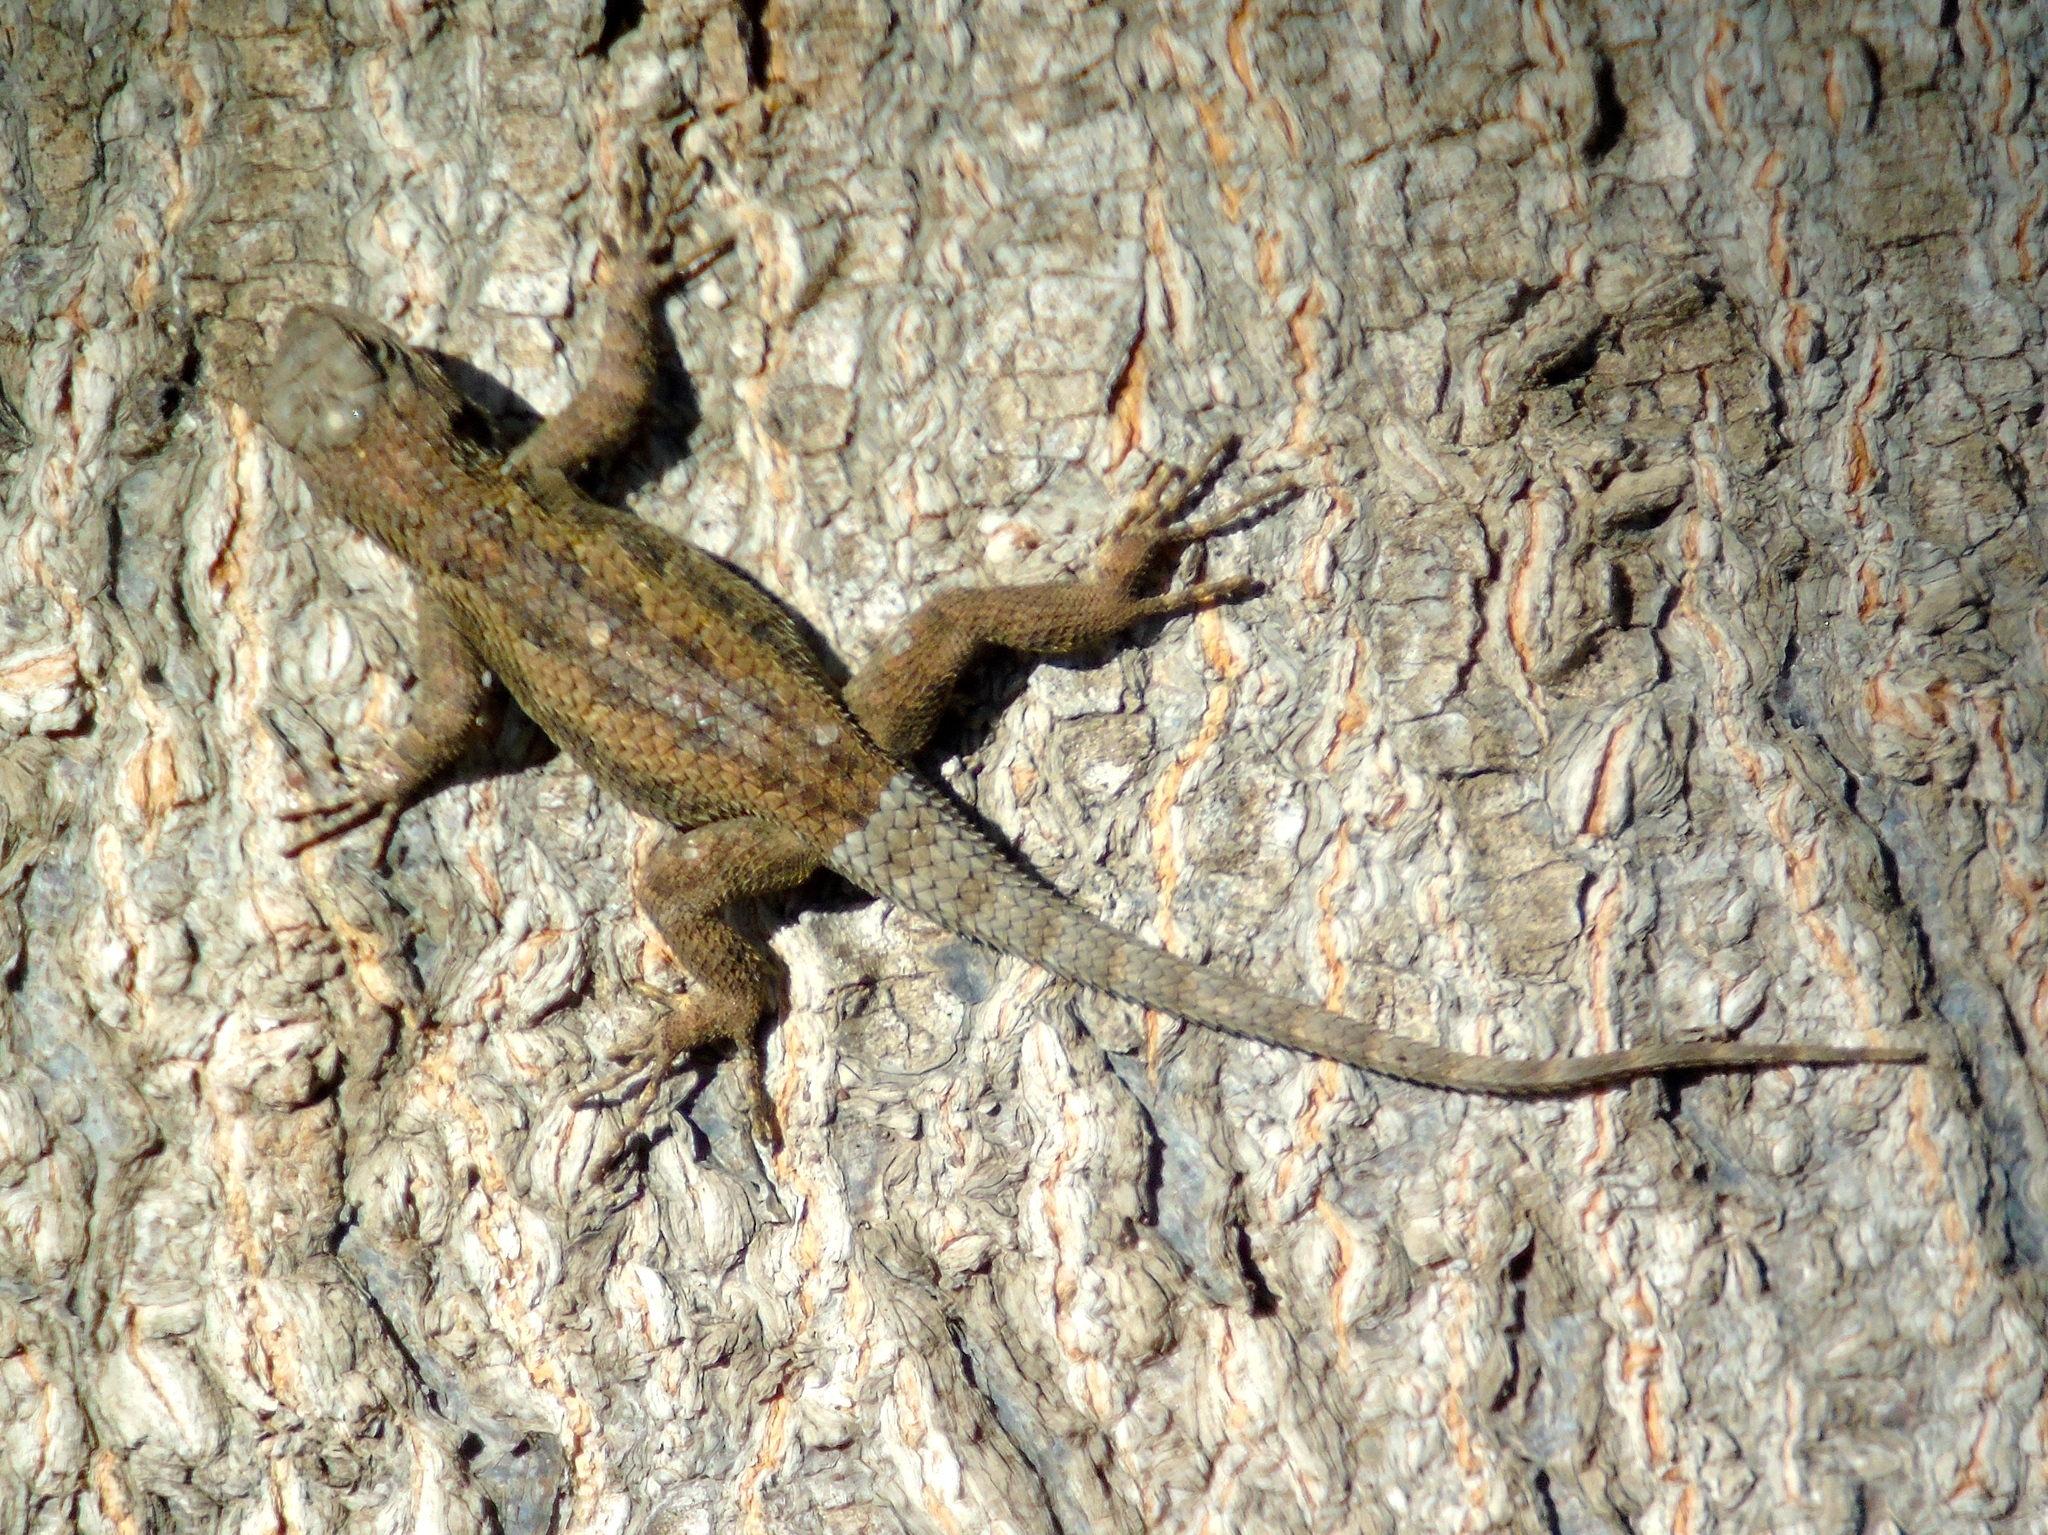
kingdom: Animalia
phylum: Chordata
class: Squamata
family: Phrynosomatidae
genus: Sceloporus
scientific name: Sceloporus
